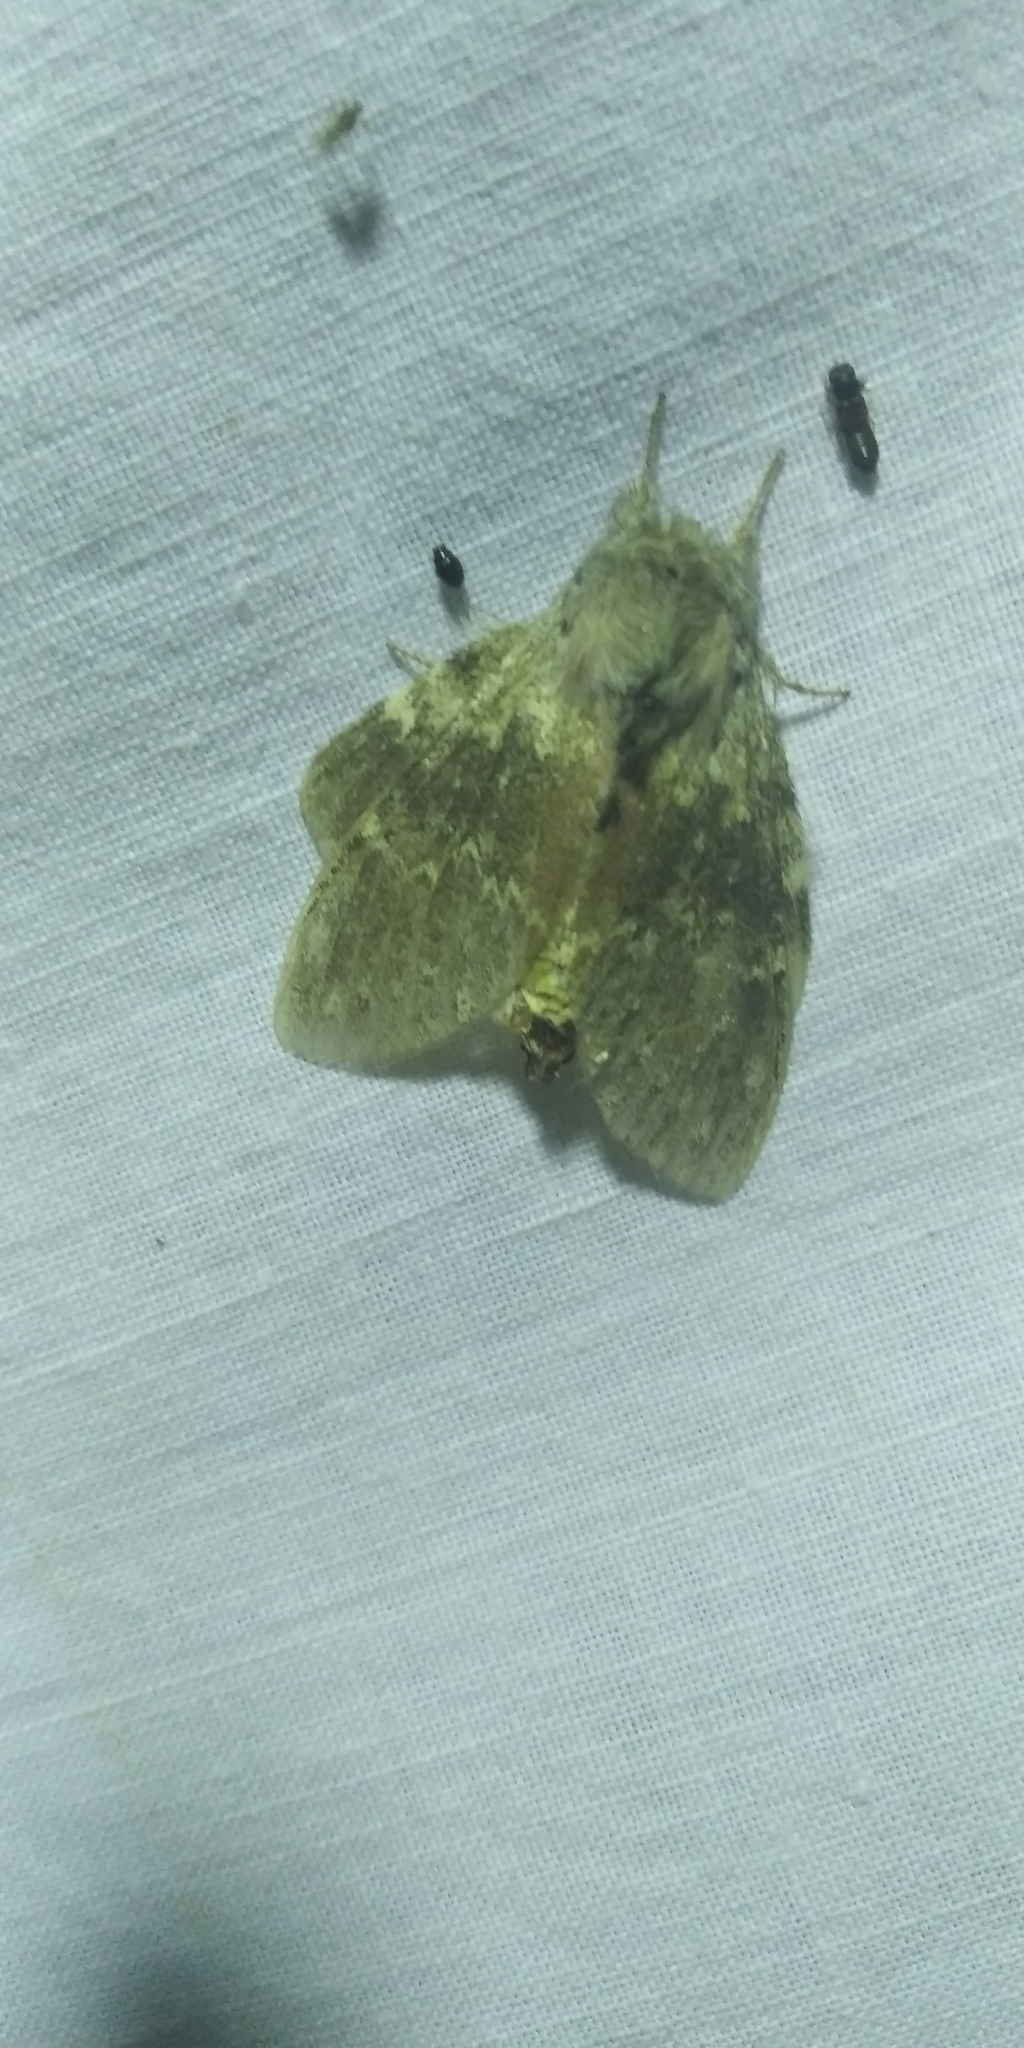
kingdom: Animalia
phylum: Arthropoda
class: Insecta
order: Lepidoptera
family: Notodontidae
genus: Stauropus
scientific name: Stauropus fagi
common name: Lobster moth
